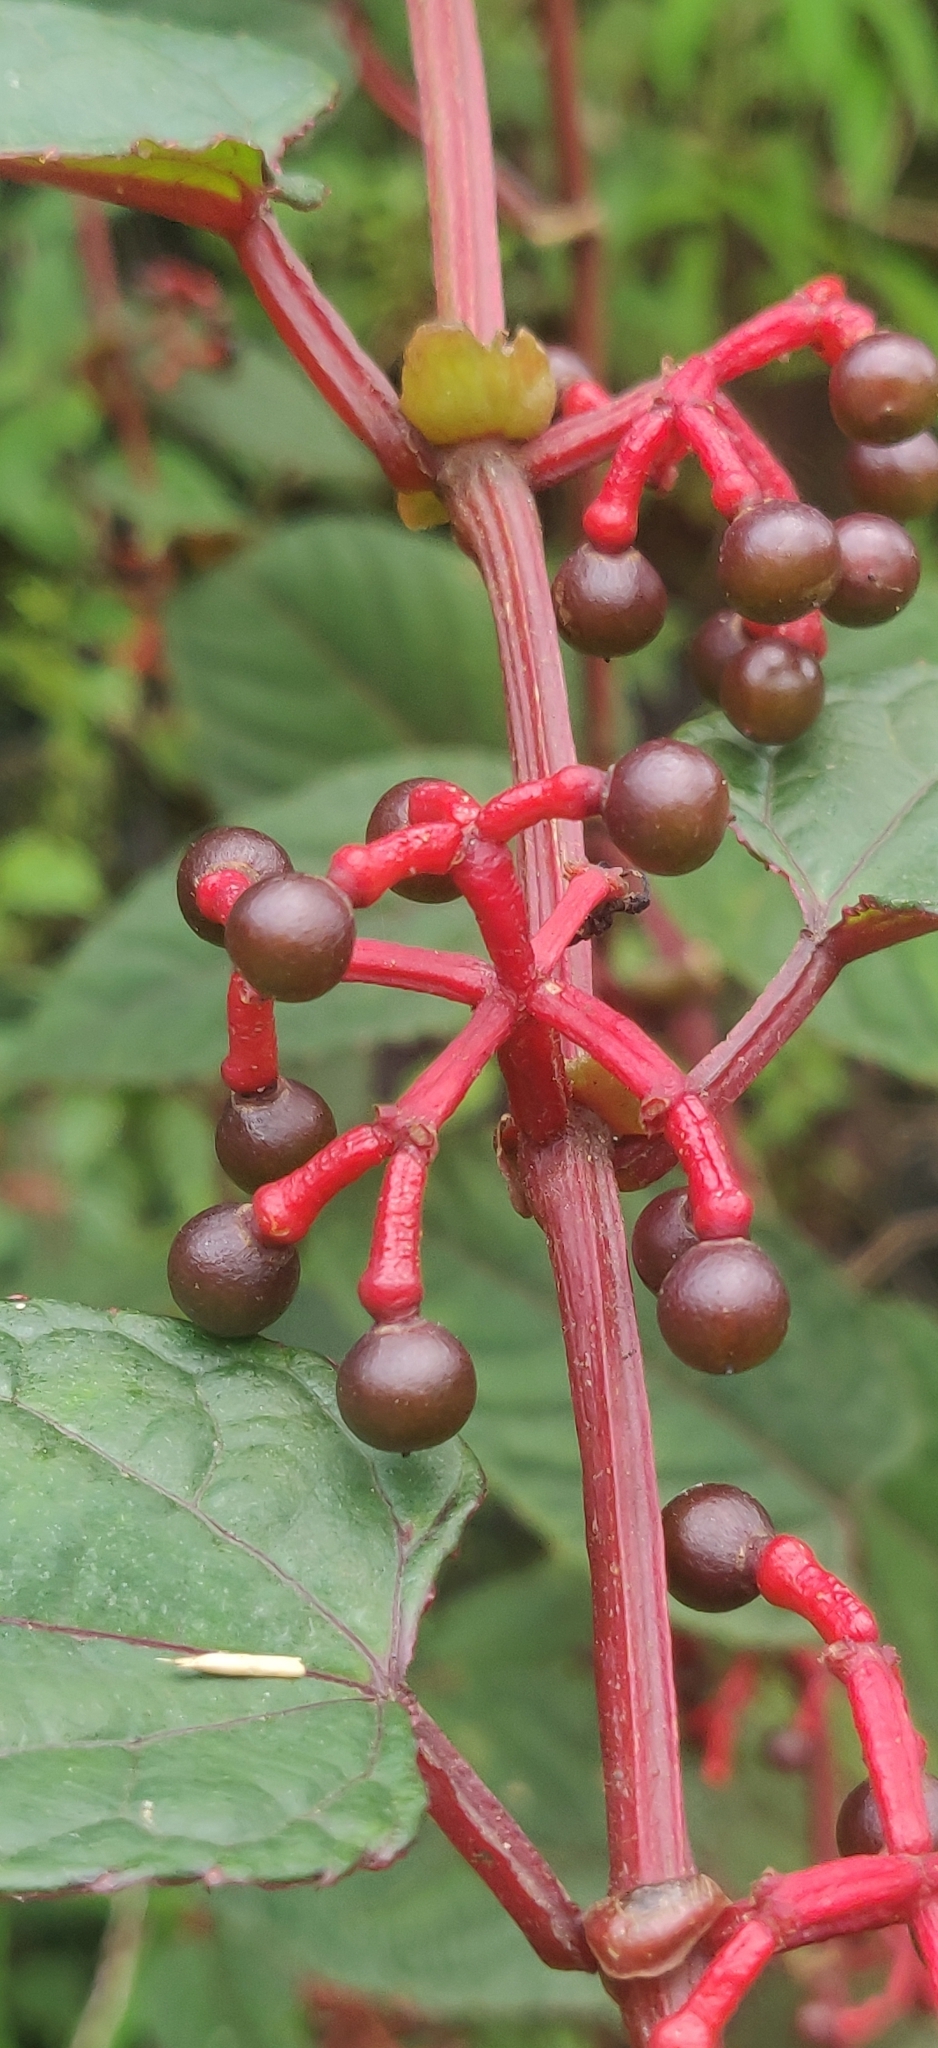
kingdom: Plantae
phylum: Tracheophyta
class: Magnoliopsida
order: Vitales
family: Vitaceae
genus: Cissus
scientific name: Cissus discolor
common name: Climbing-begonia
